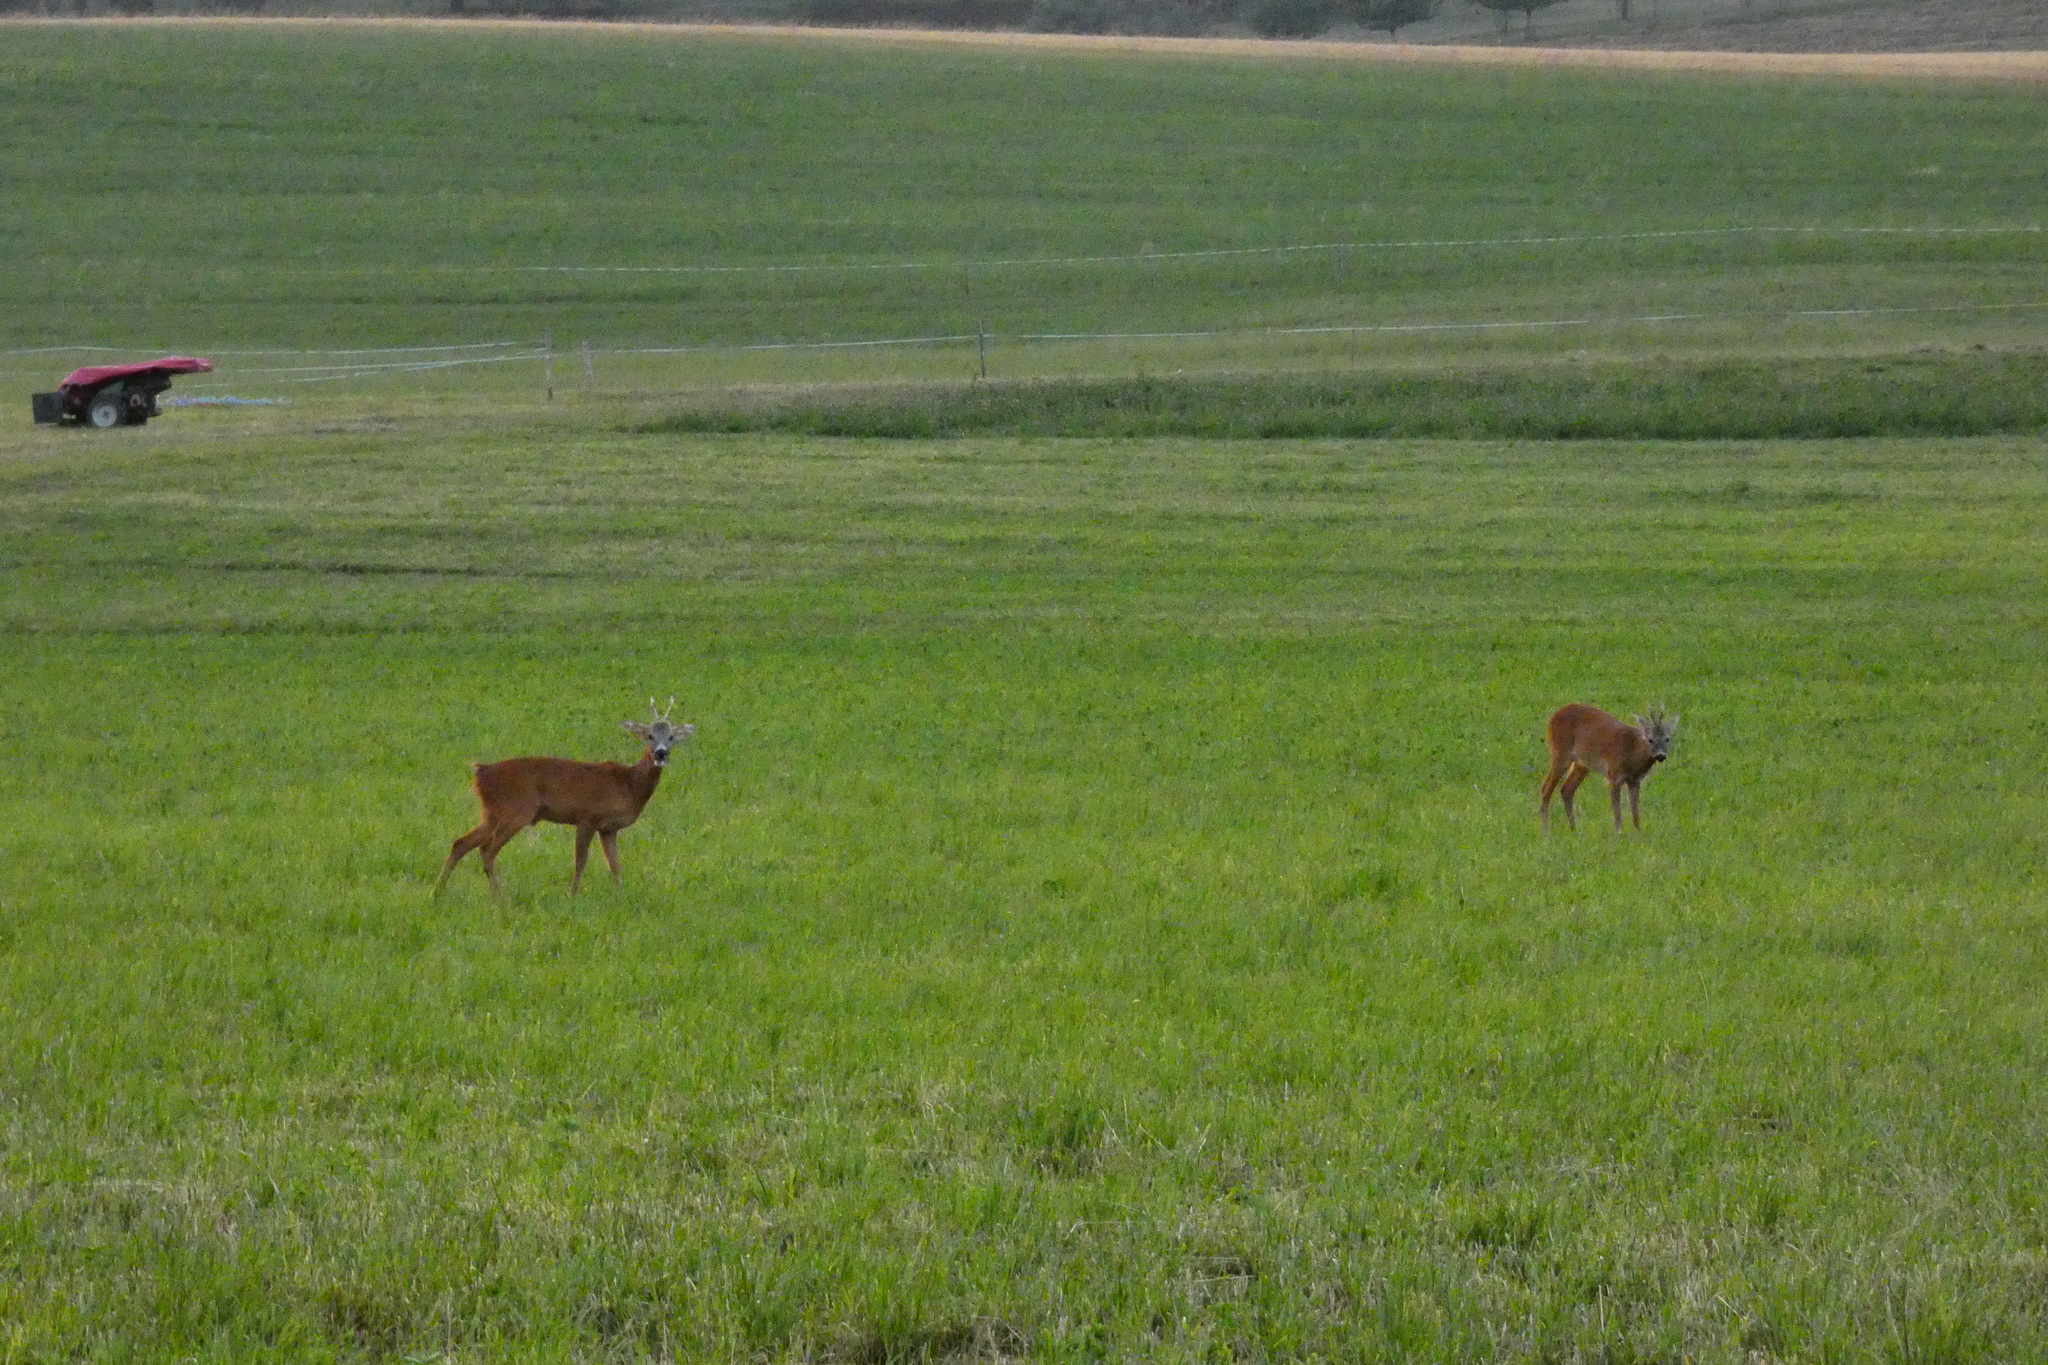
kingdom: Animalia
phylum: Chordata
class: Mammalia
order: Artiodactyla
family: Cervidae
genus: Capreolus
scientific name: Capreolus capreolus
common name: Western roe deer
